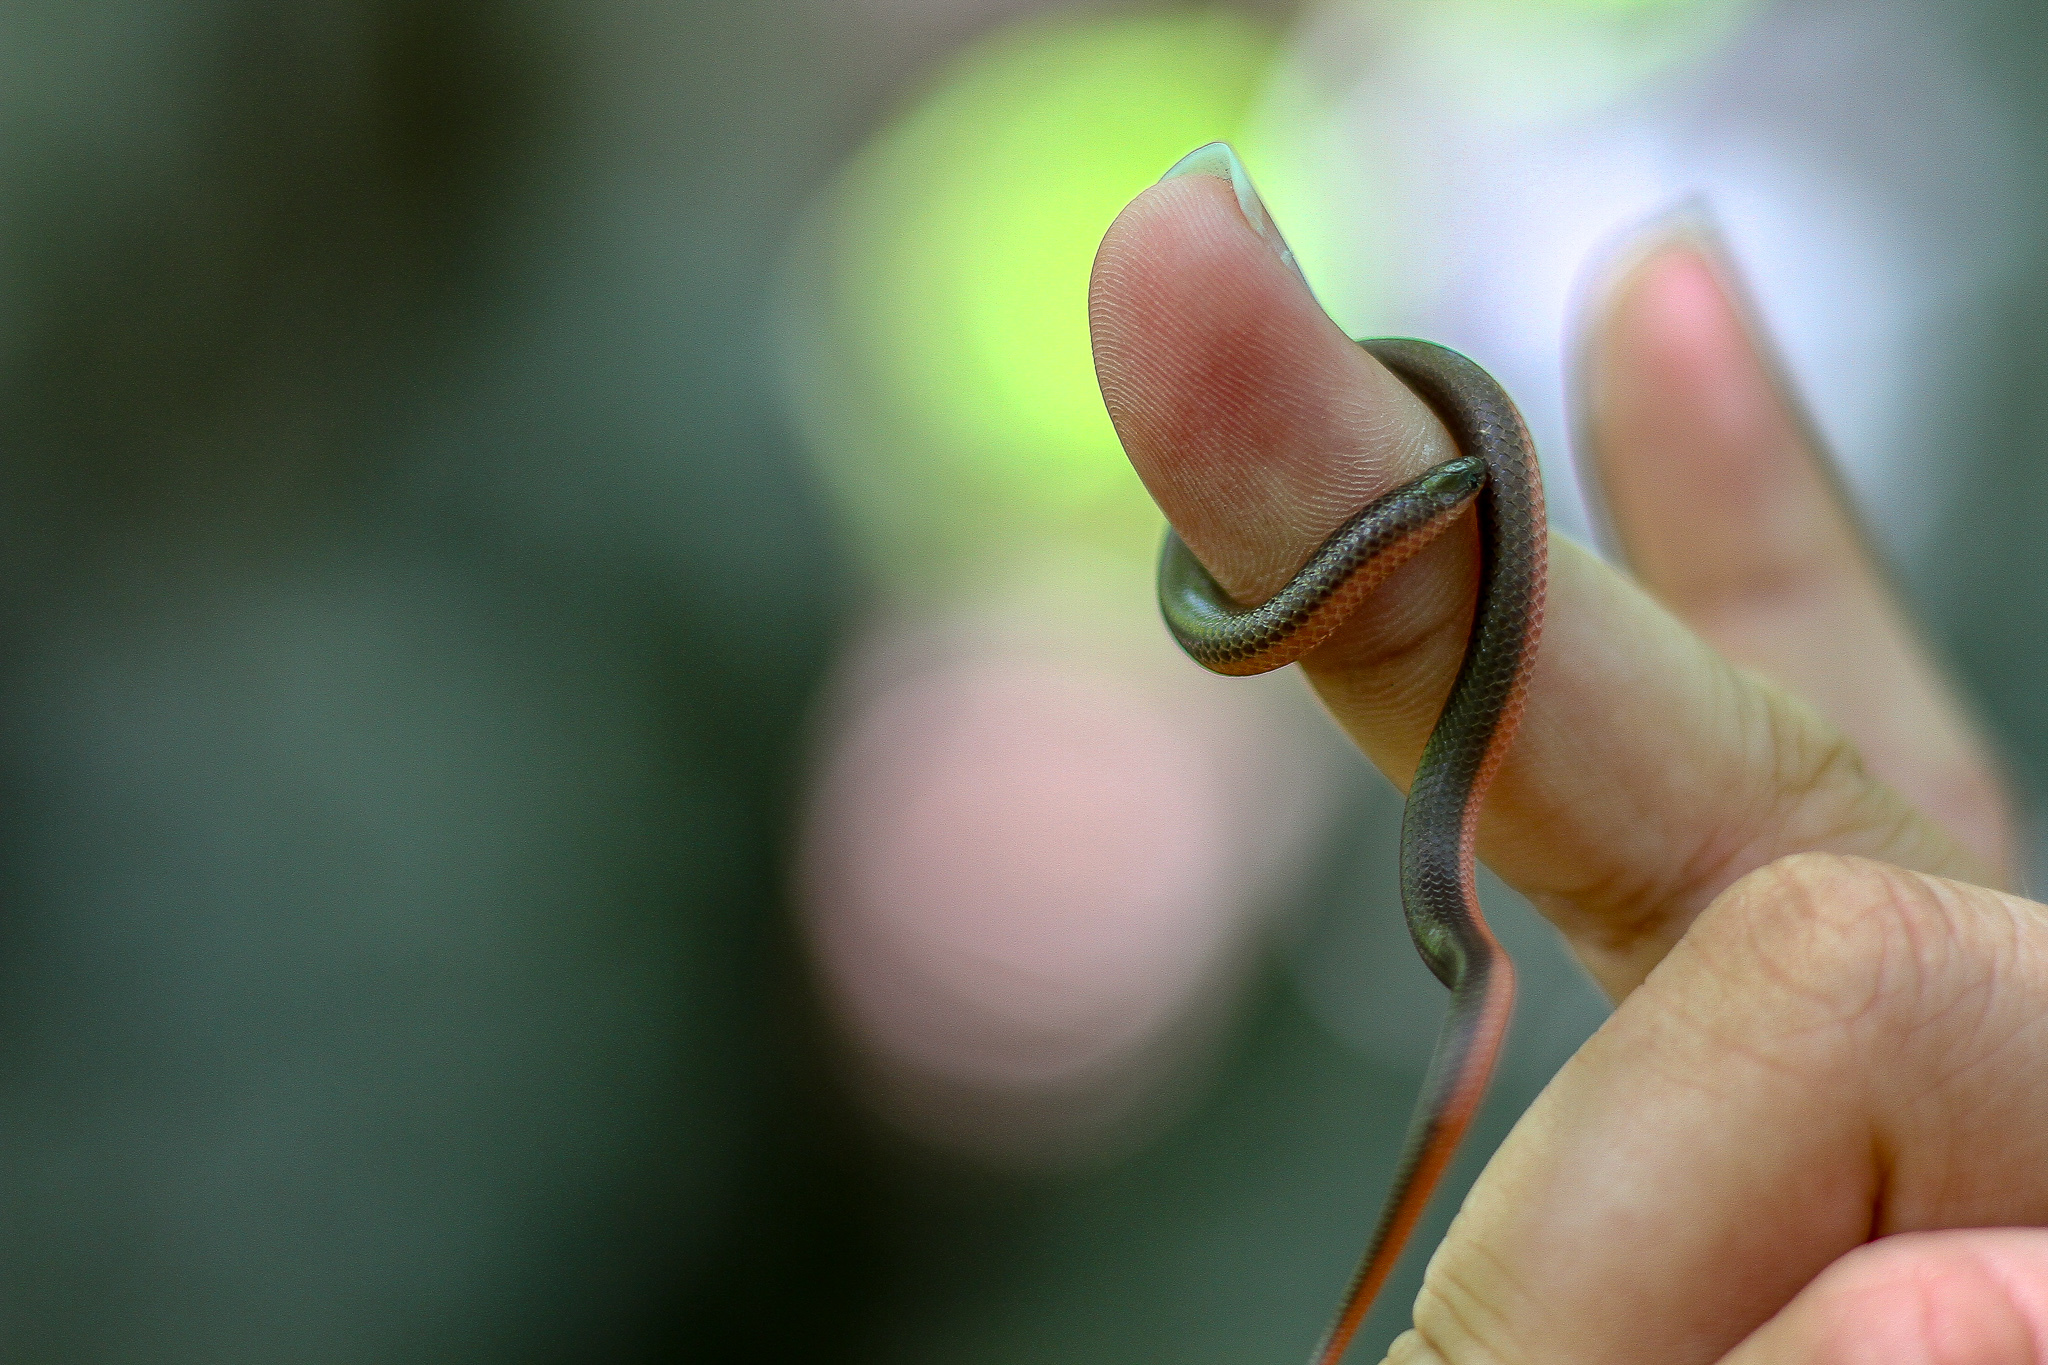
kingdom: Animalia
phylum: Chordata
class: Squamata
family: Colubridae
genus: Carphophis
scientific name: Carphophis amoenus
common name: Eastern worm snake
